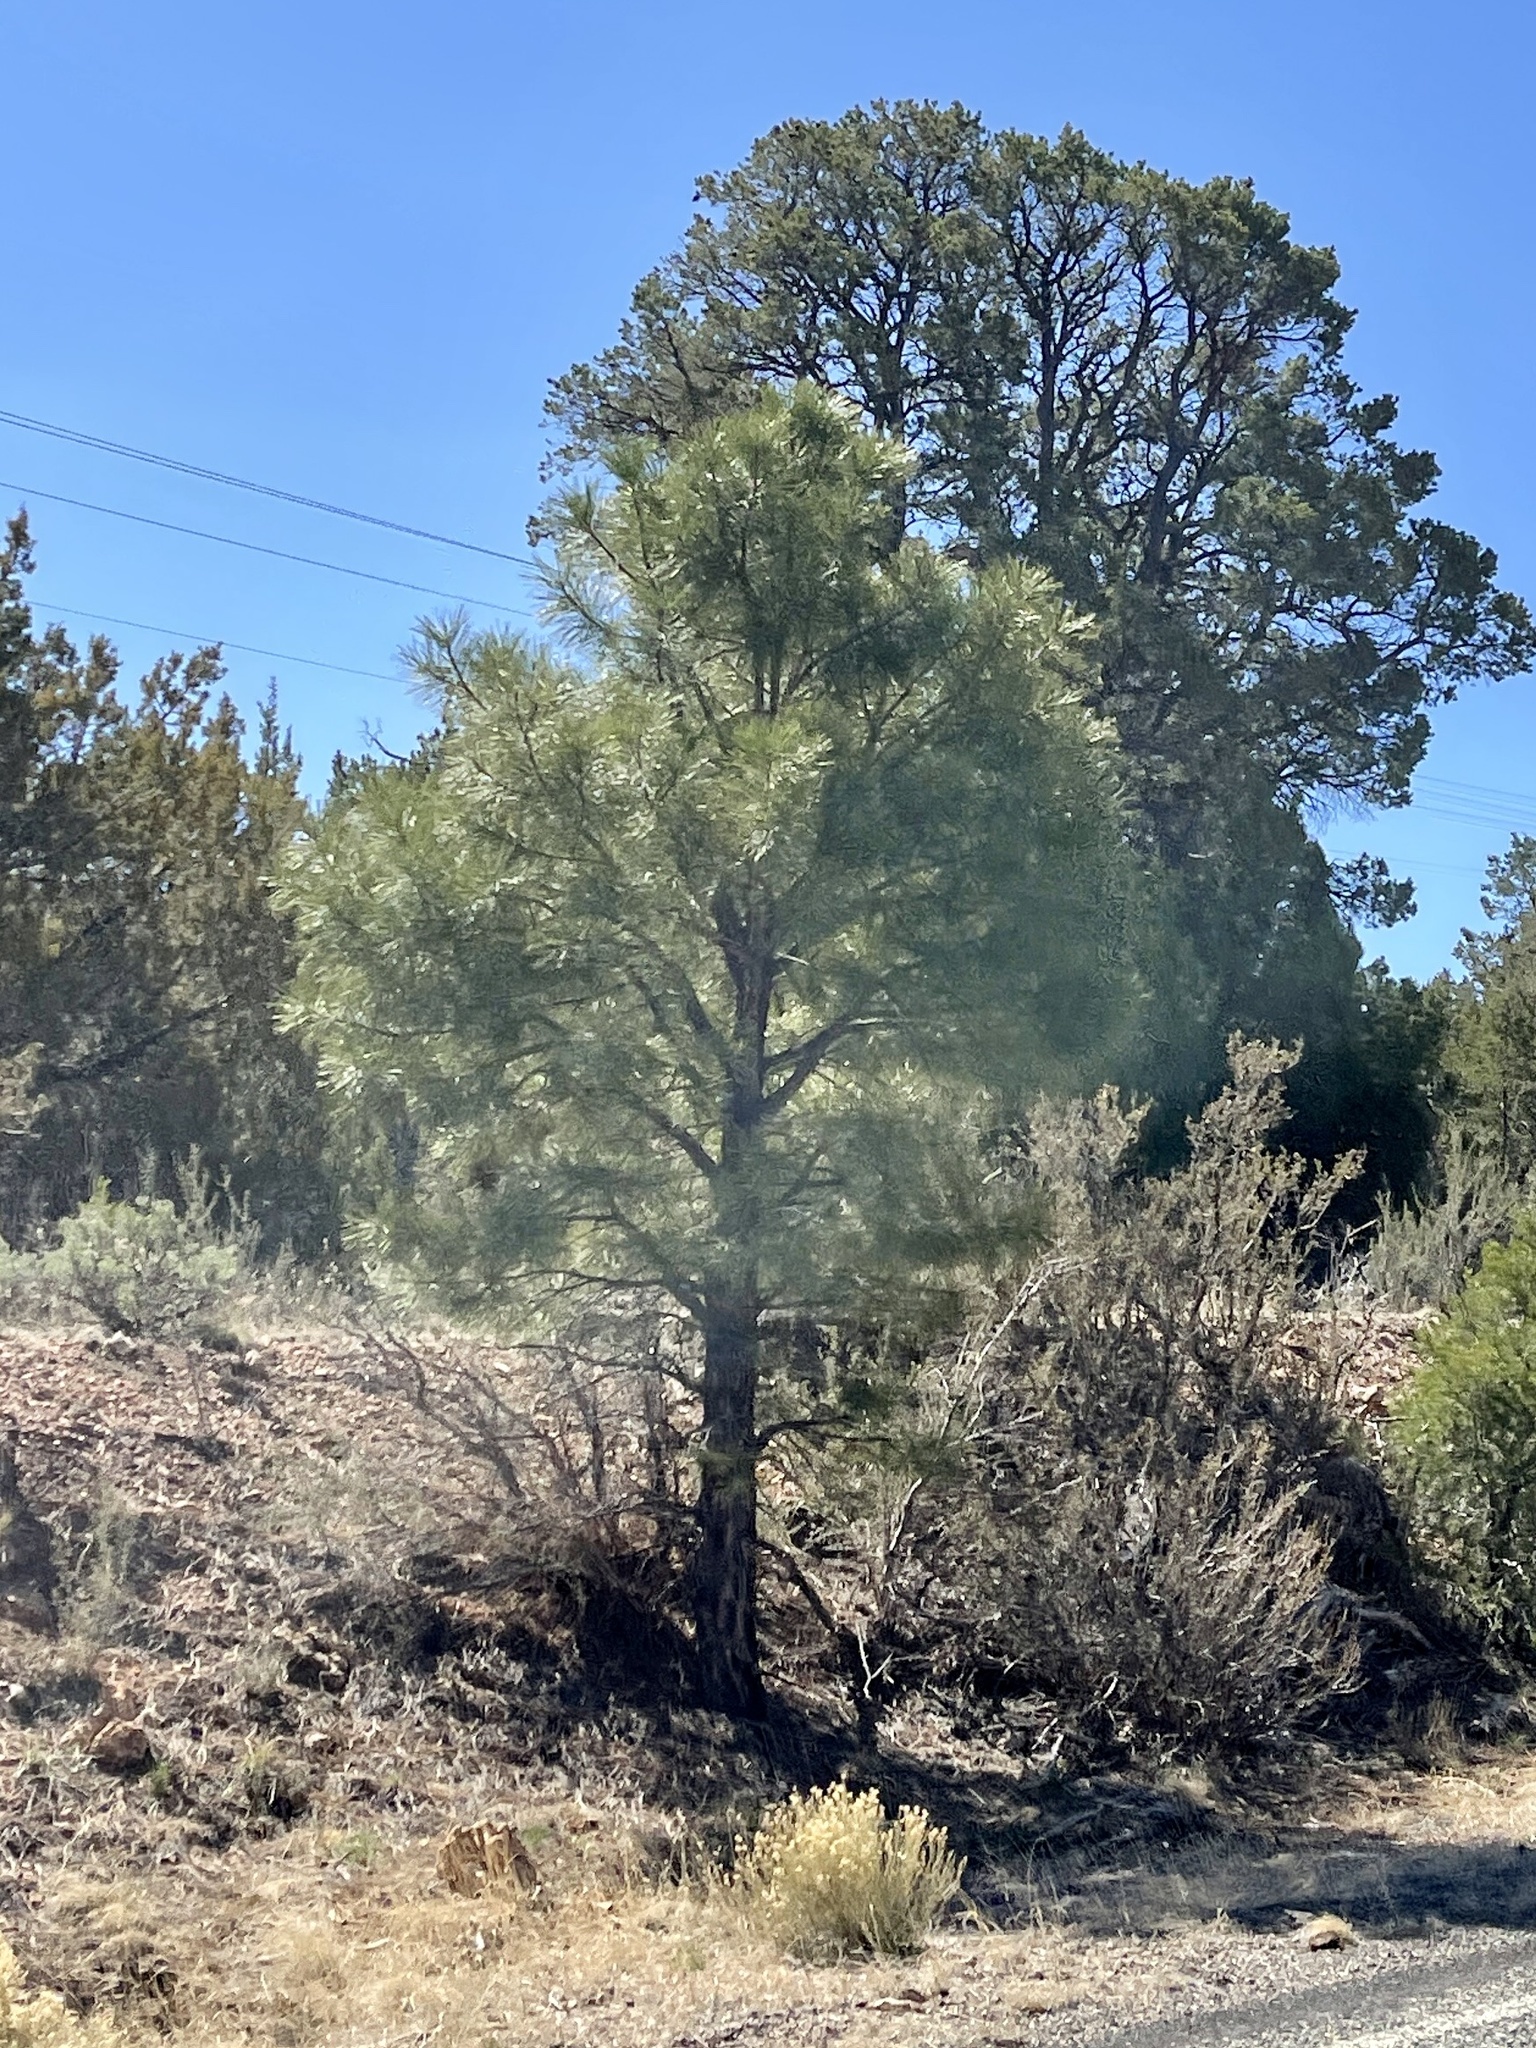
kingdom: Plantae
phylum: Tracheophyta
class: Pinopsida
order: Pinales
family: Pinaceae
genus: Pinus
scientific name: Pinus ponderosa
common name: Western yellow-pine
